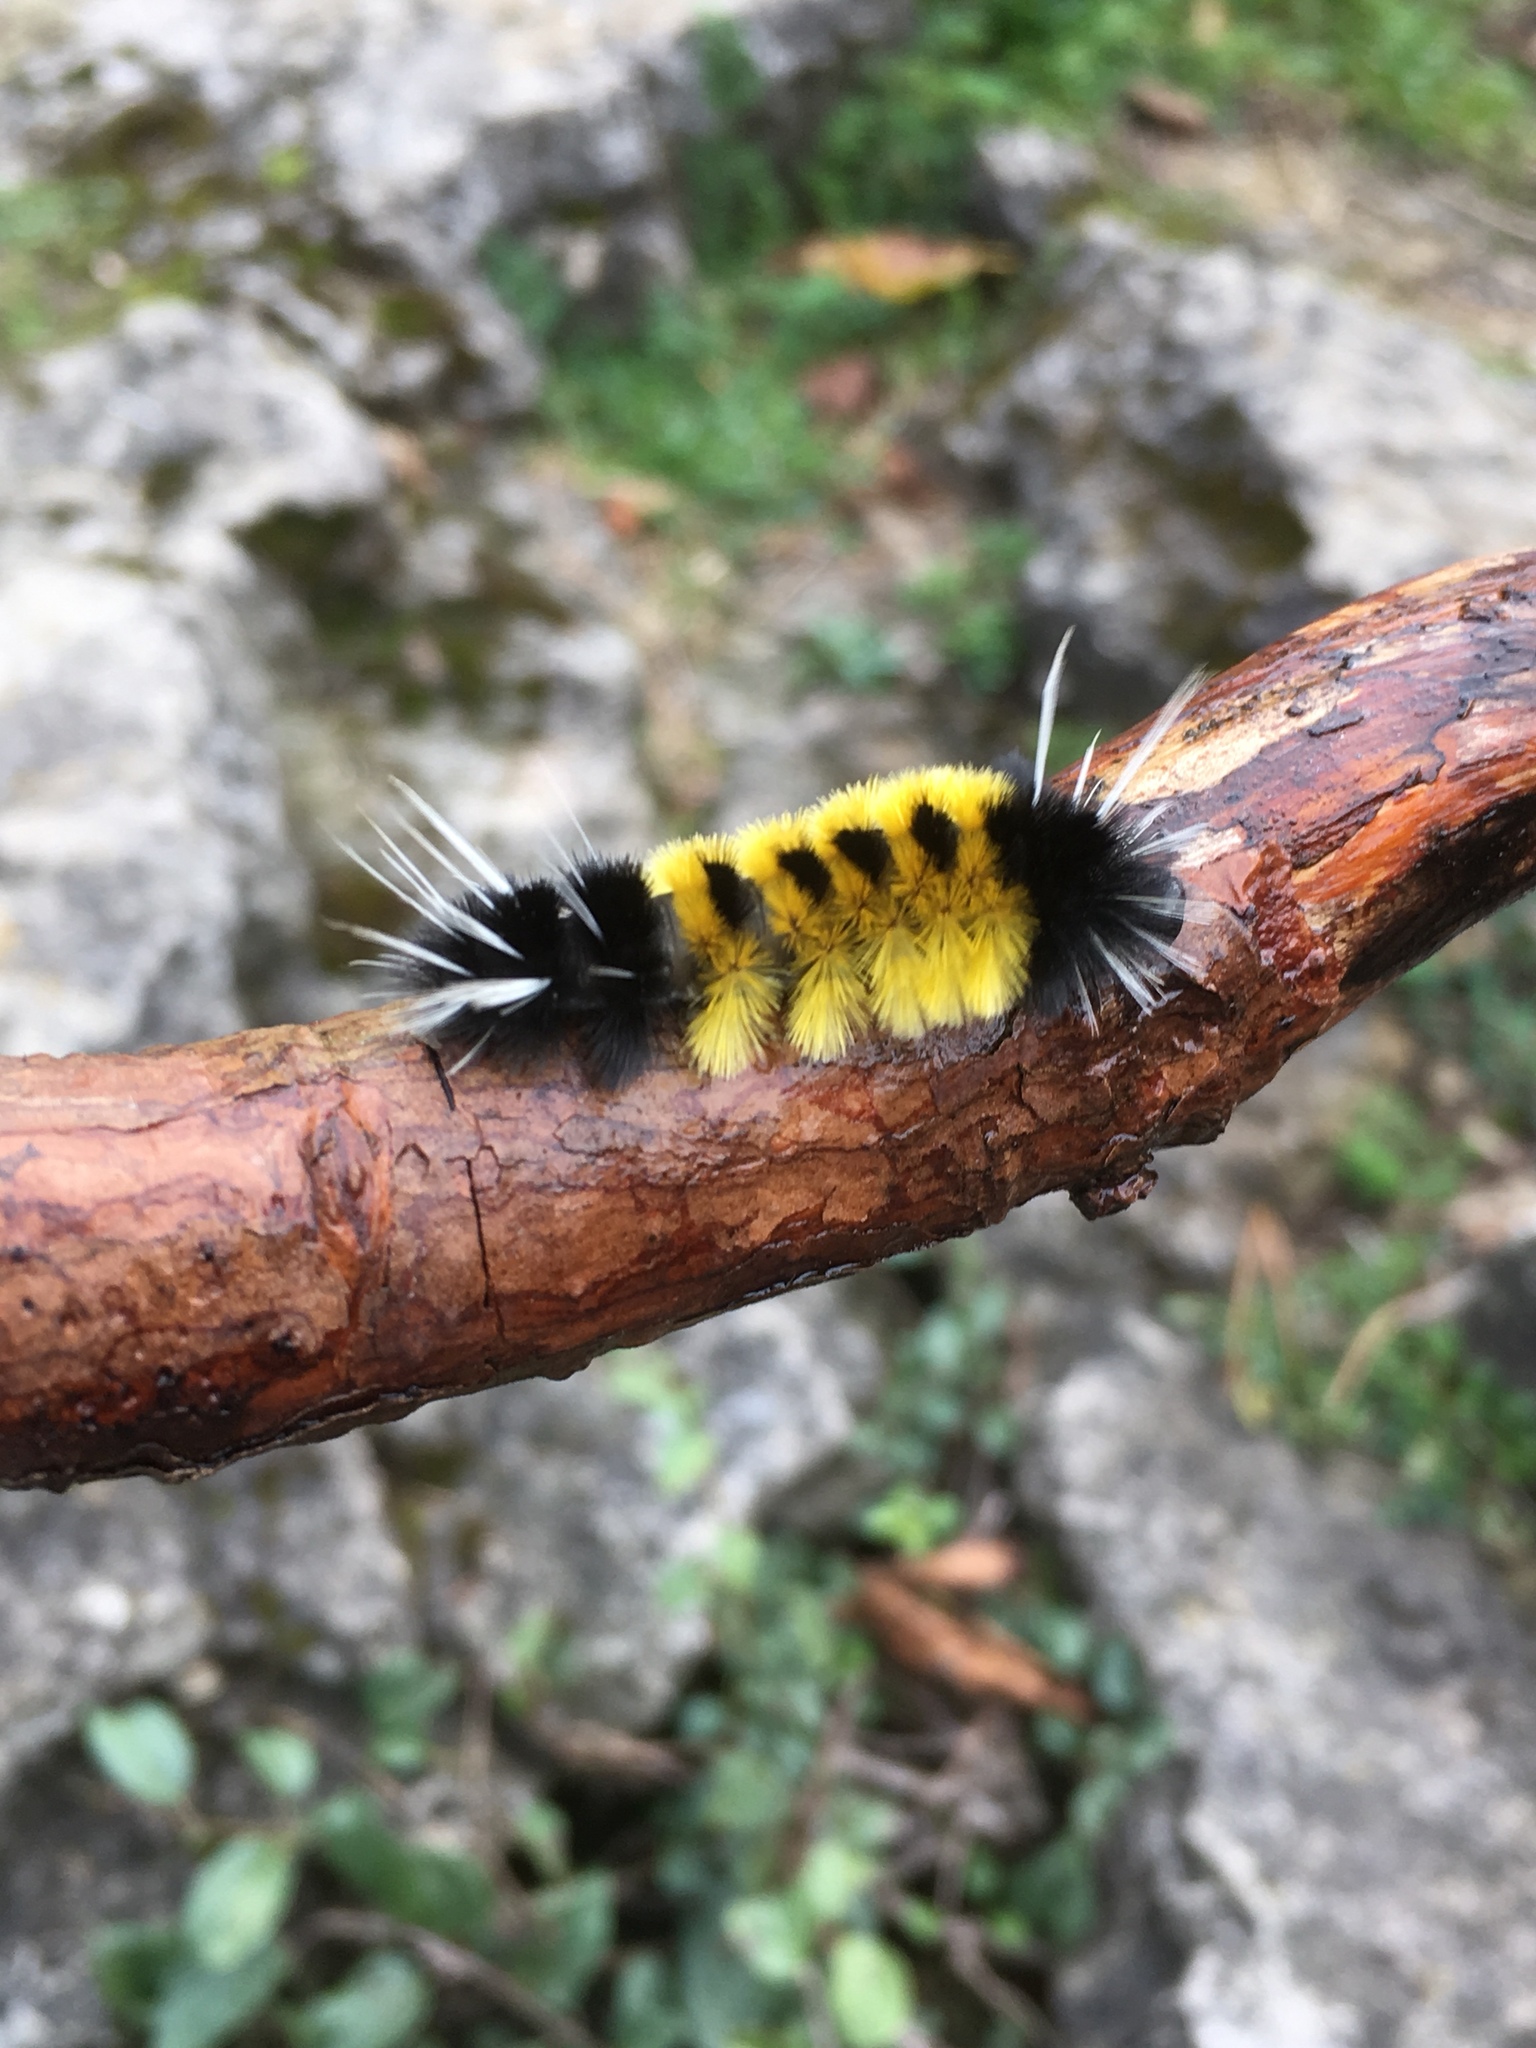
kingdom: Animalia
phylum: Arthropoda
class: Insecta
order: Lepidoptera
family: Erebidae
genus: Lophocampa
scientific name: Lophocampa maculata
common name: Spotted tussock moth
